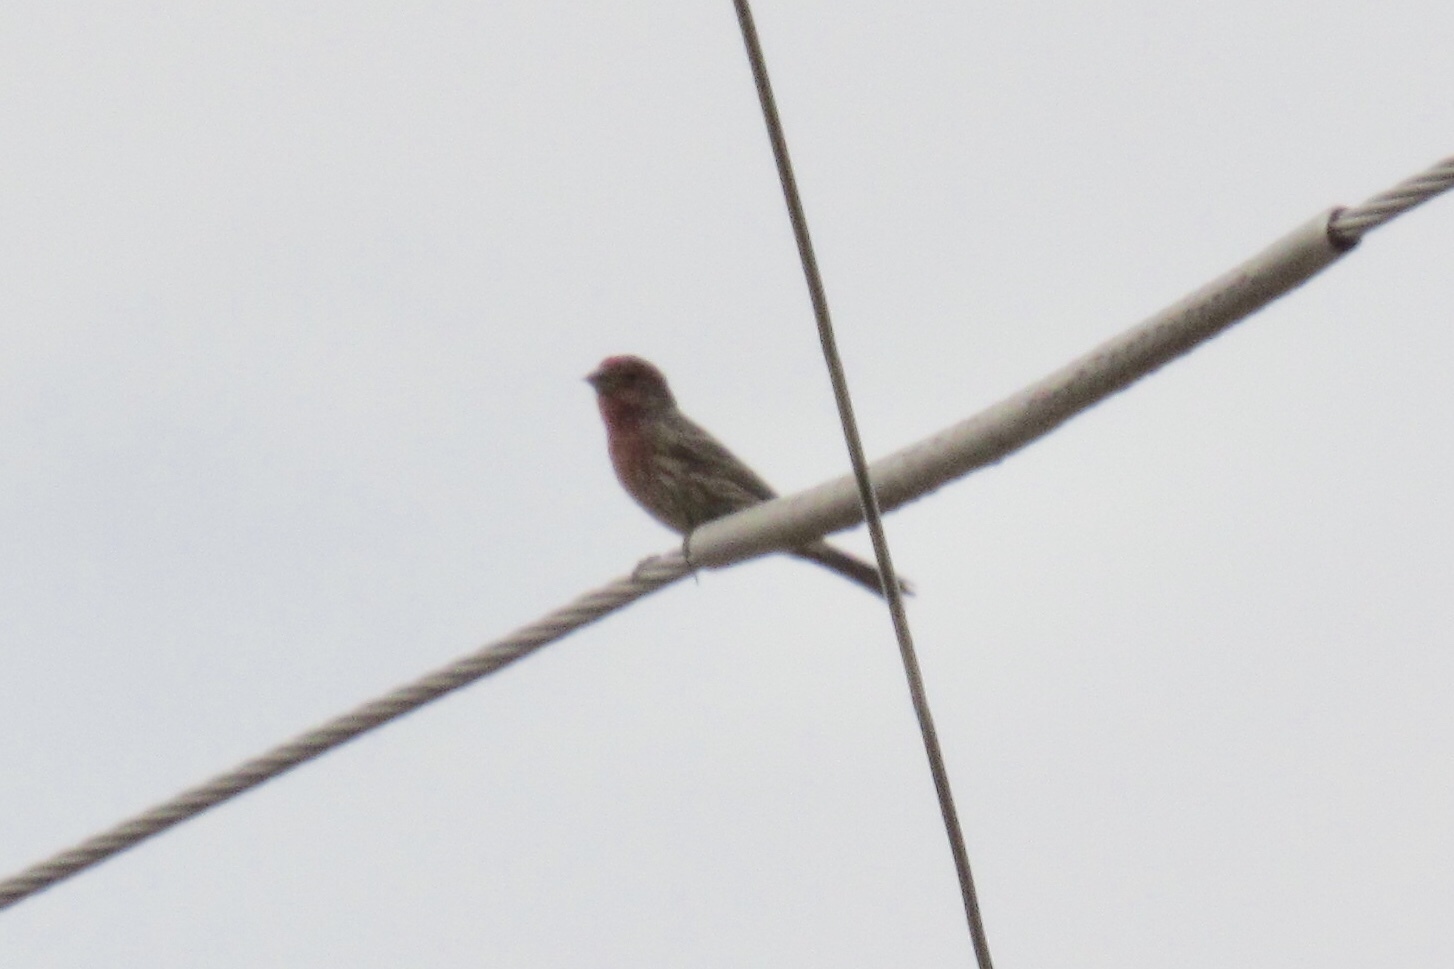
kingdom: Animalia
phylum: Chordata
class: Aves
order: Passeriformes
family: Fringillidae
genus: Haemorhous
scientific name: Haemorhous mexicanus
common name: House finch
